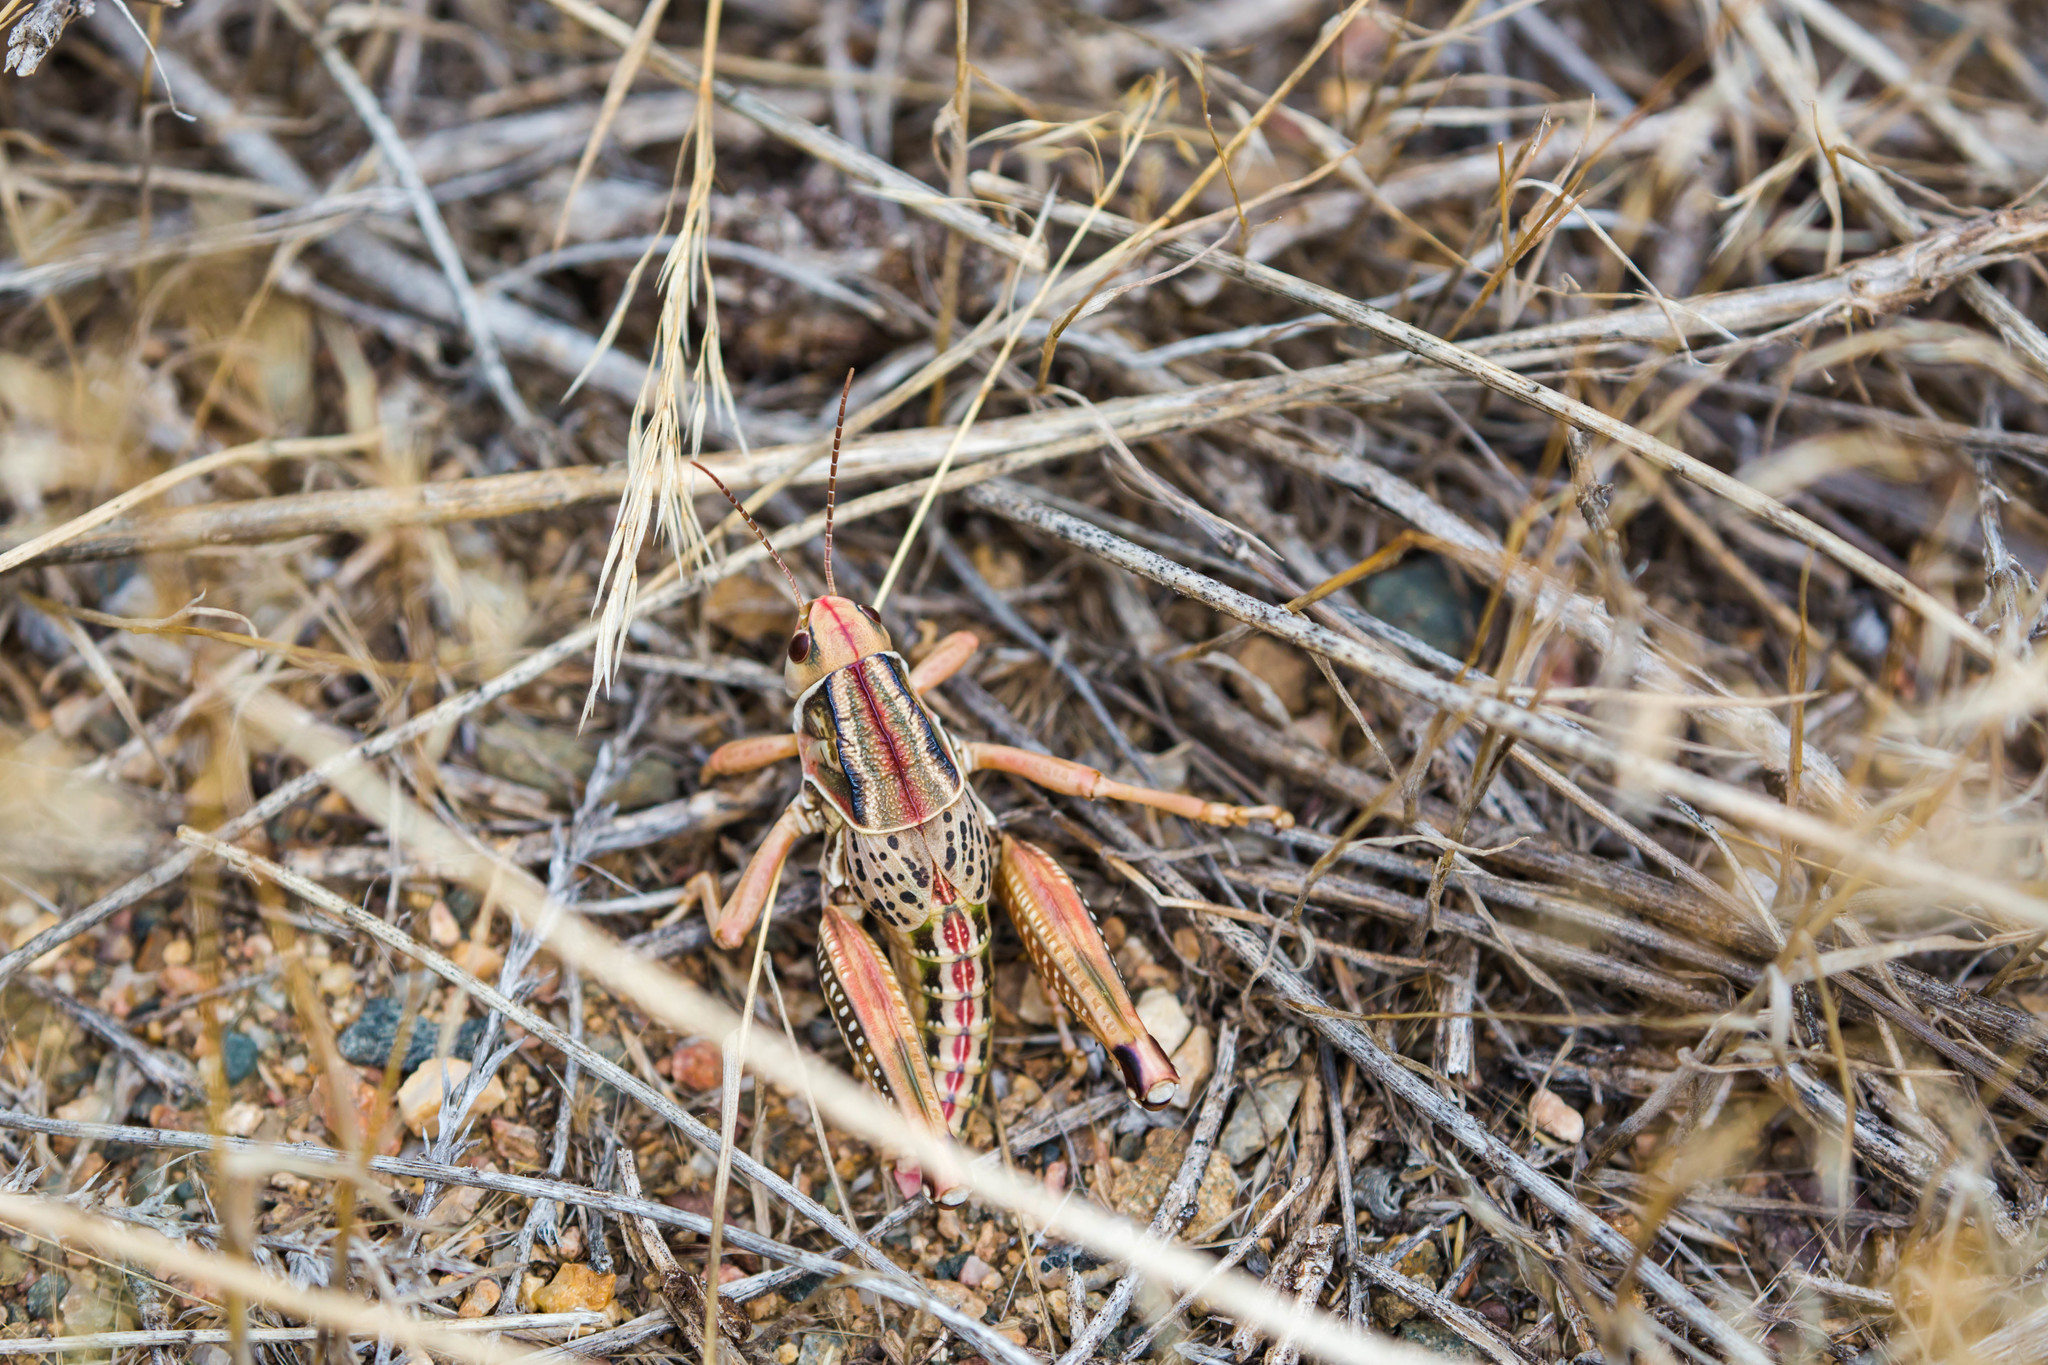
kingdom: Animalia
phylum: Arthropoda
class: Insecta
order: Orthoptera
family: Romaleidae
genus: Brachystola
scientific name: Brachystola magna
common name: Plains lubber grasshopper
